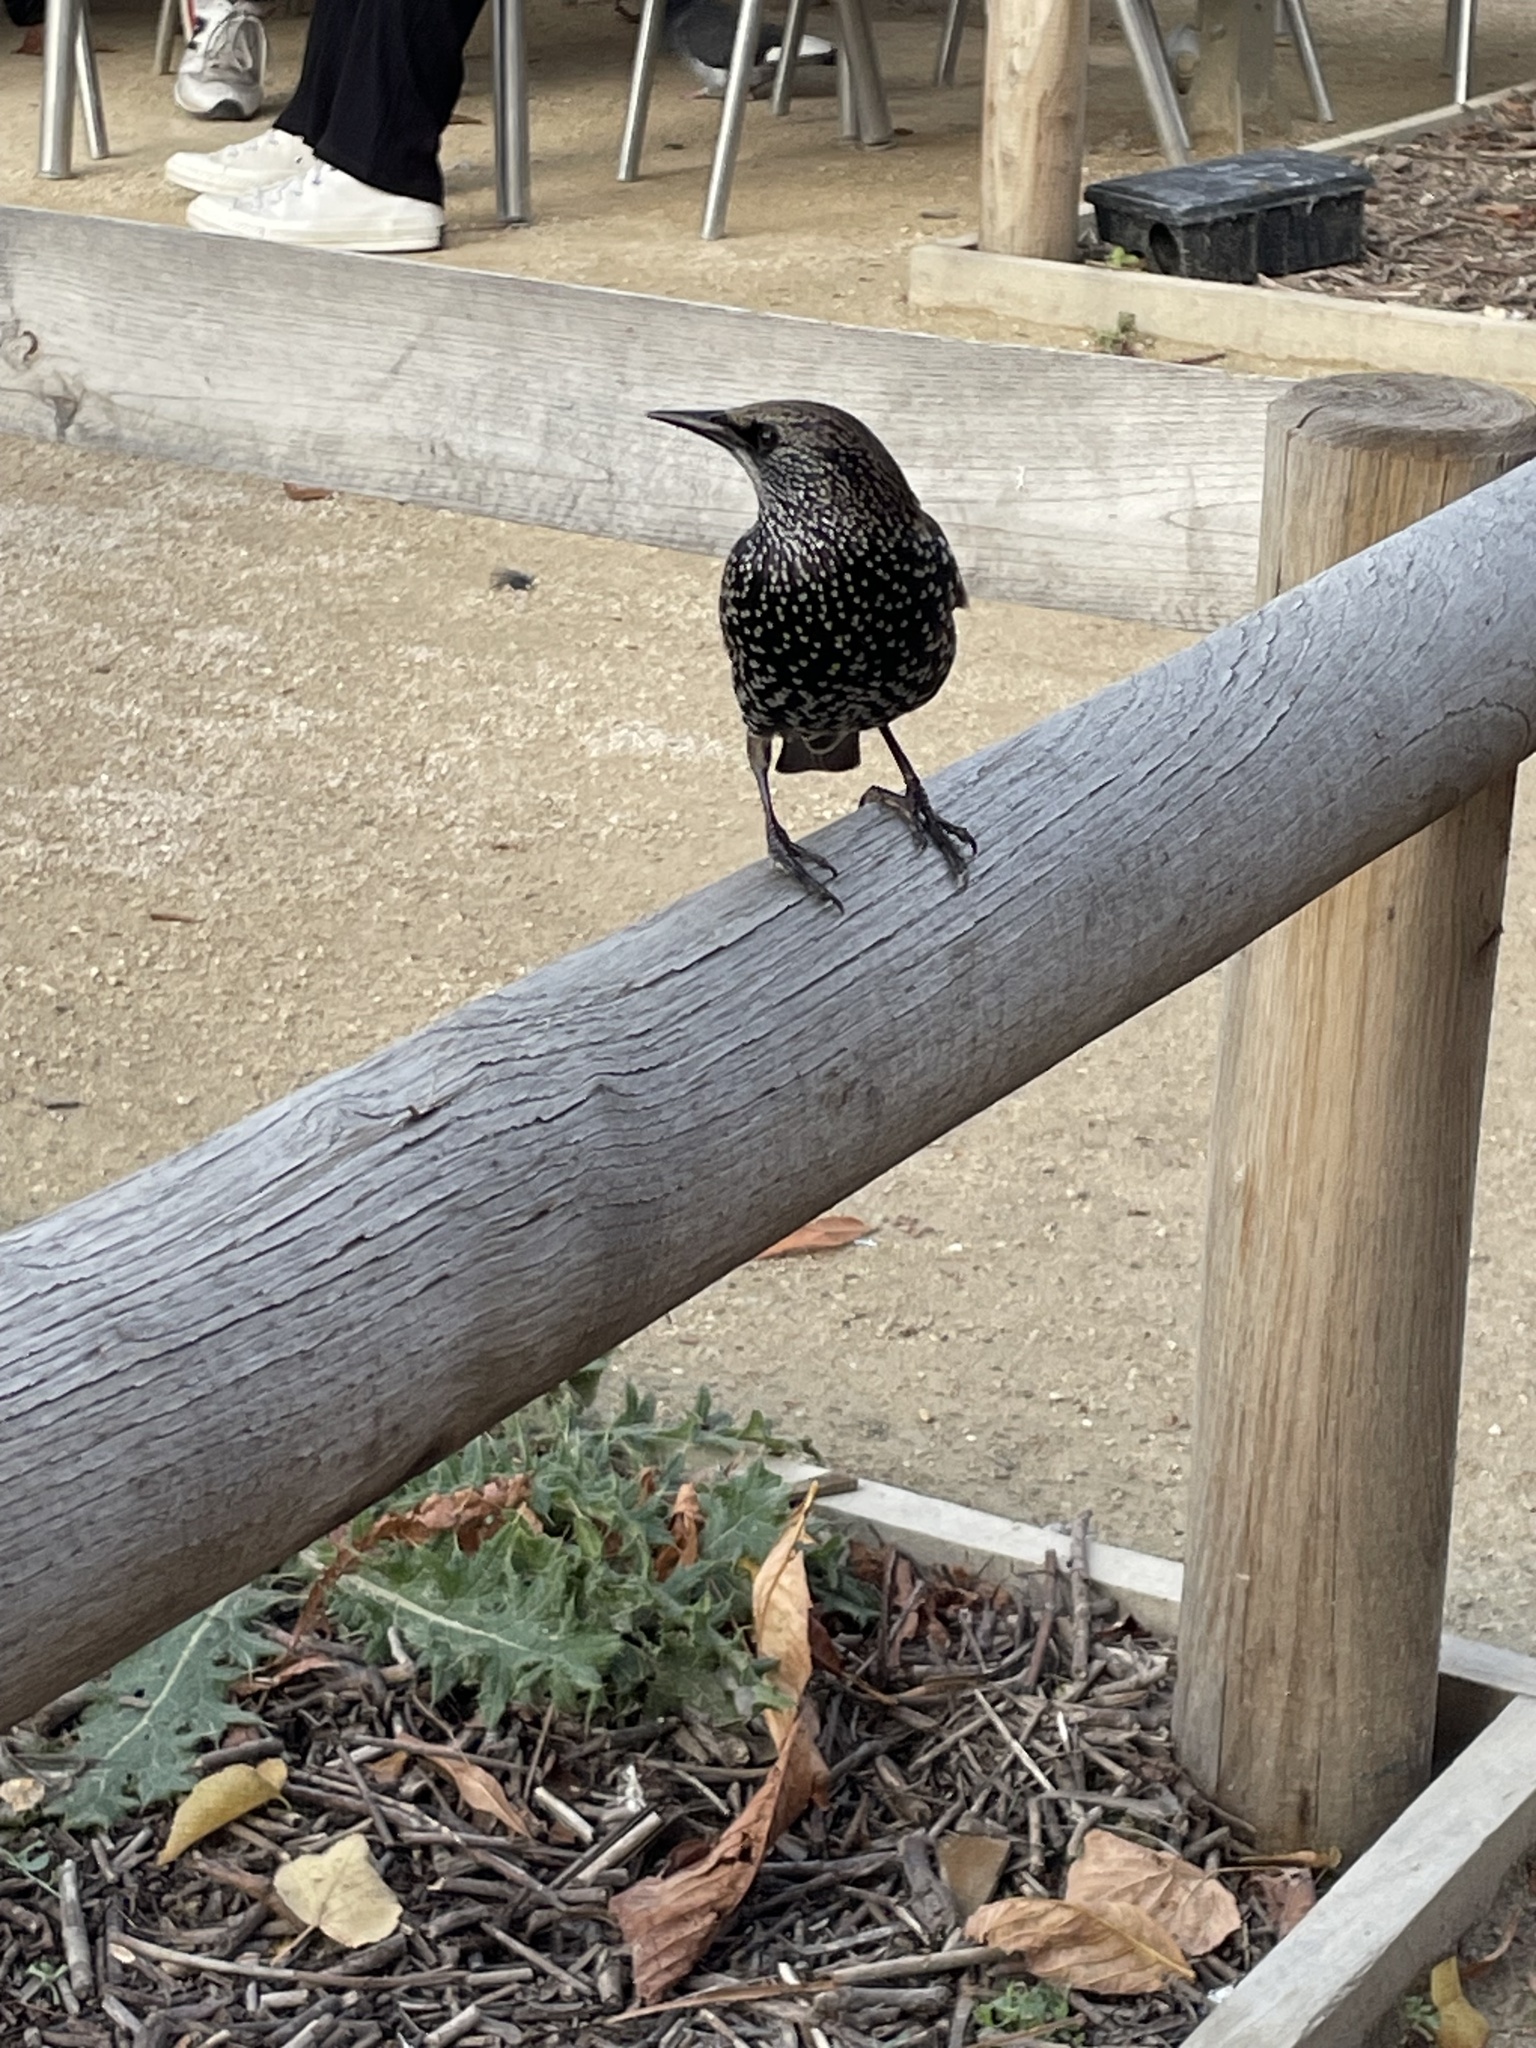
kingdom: Animalia
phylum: Chordata
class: Aves
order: Passeriformes
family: Sturnidae
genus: Sturnus
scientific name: Sturnus vulgaris
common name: Common starling
